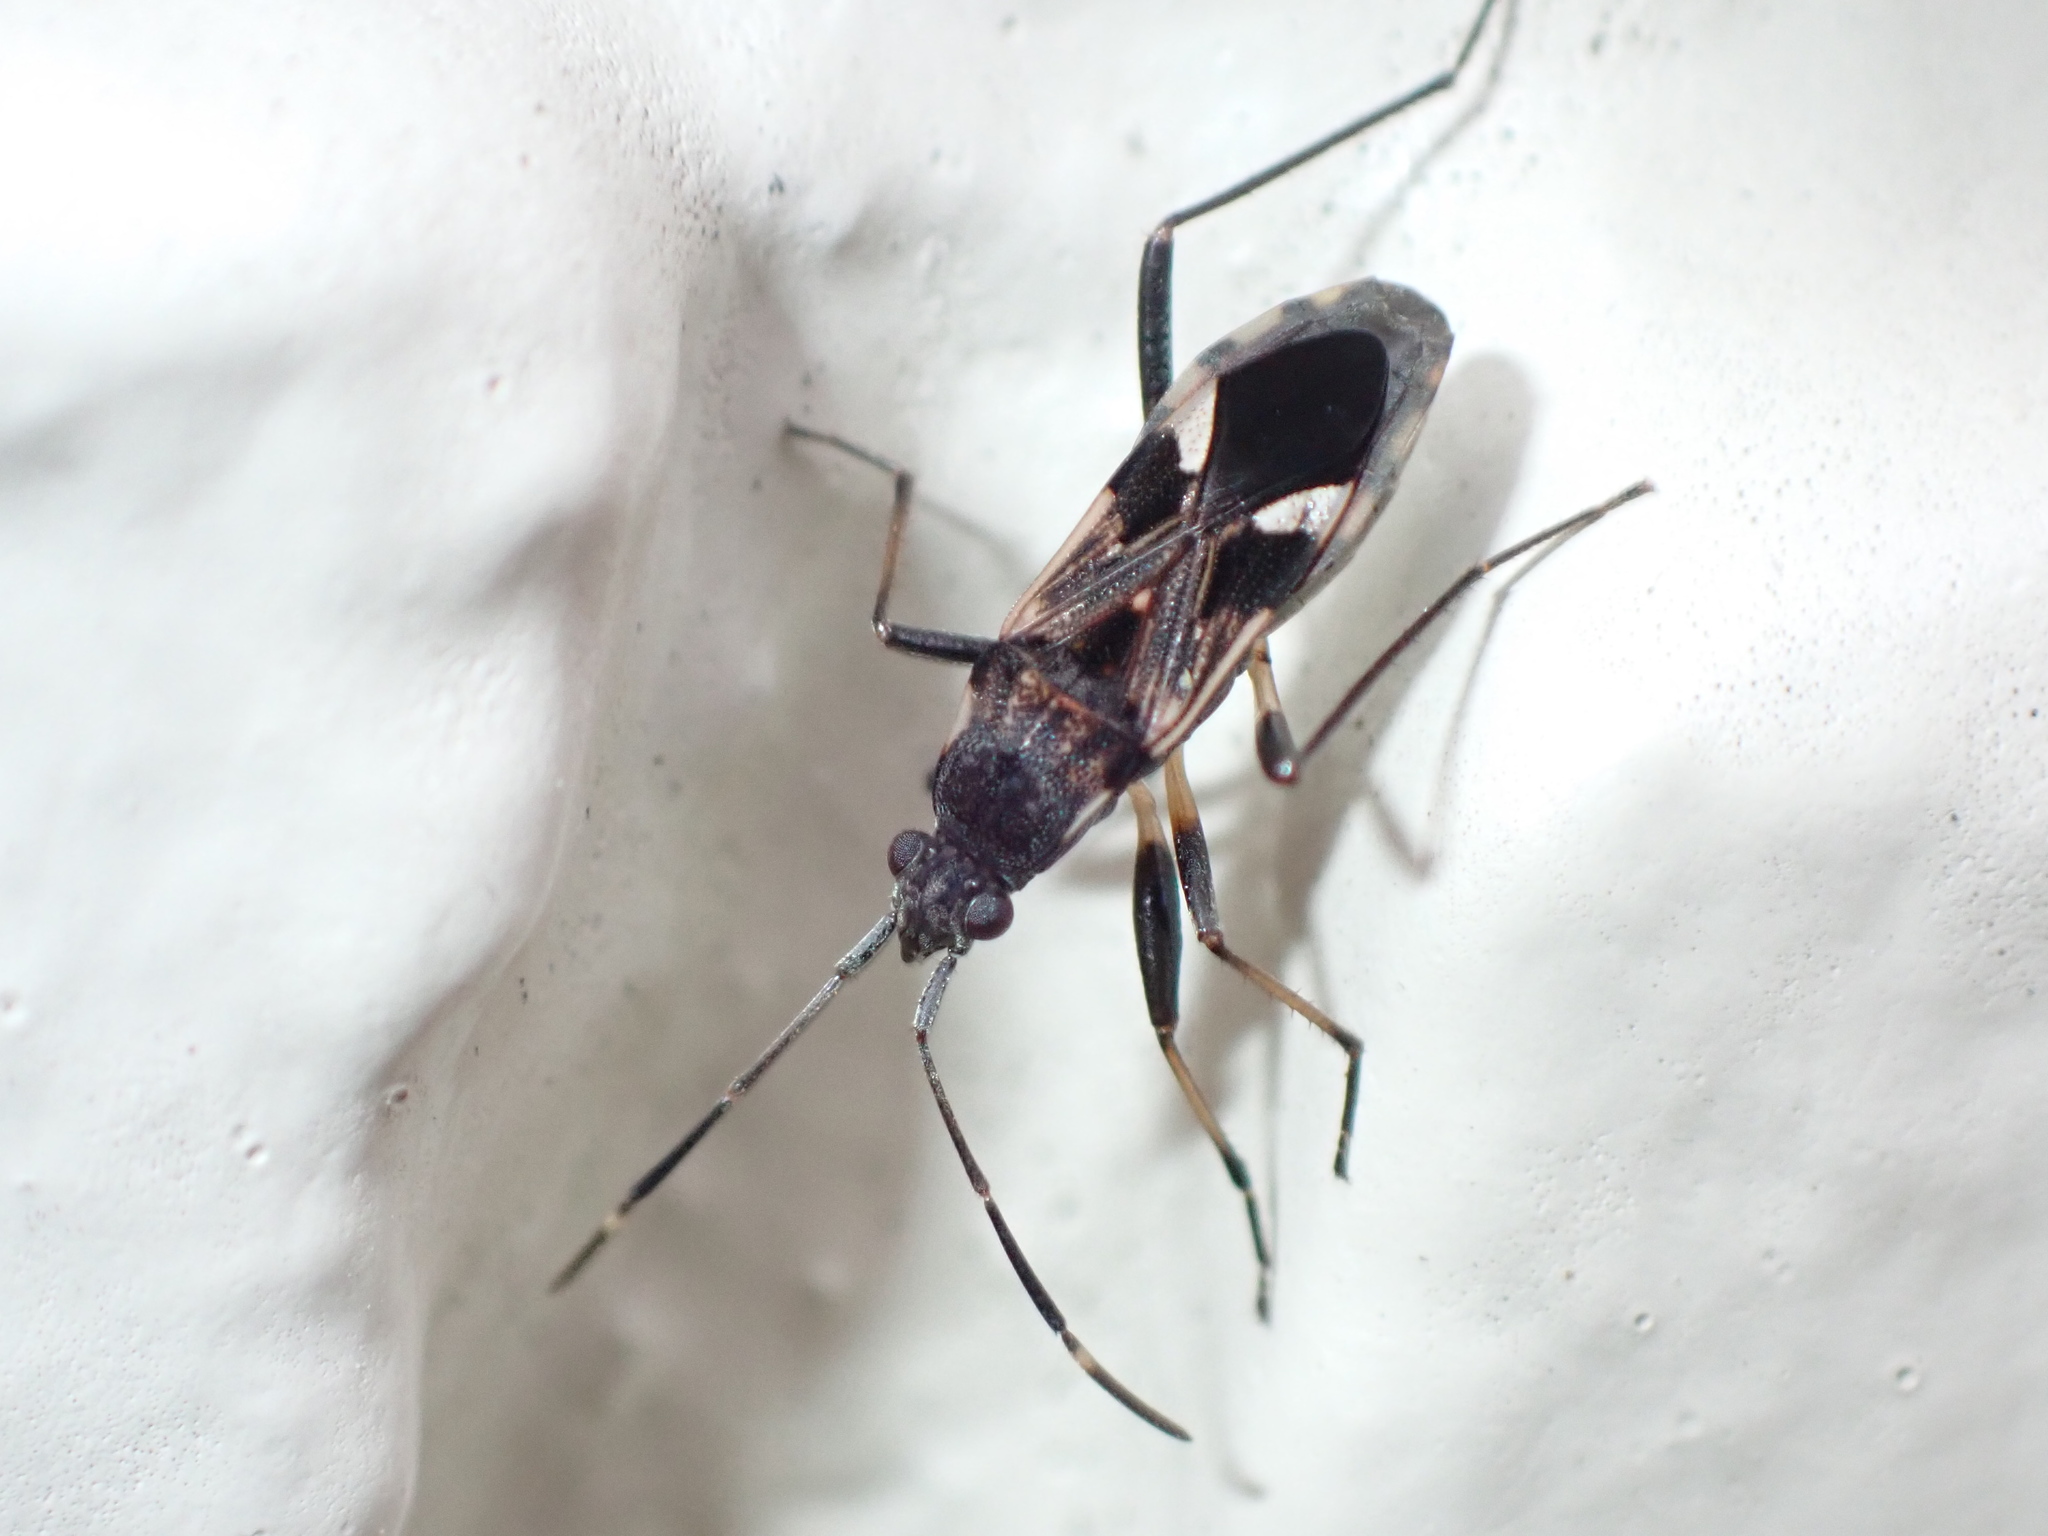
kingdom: Animalia
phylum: Arthropoda
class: Insecta
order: Hemiptera
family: Rhyparochromidae
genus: Dieuches
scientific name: Dieuches notatus
